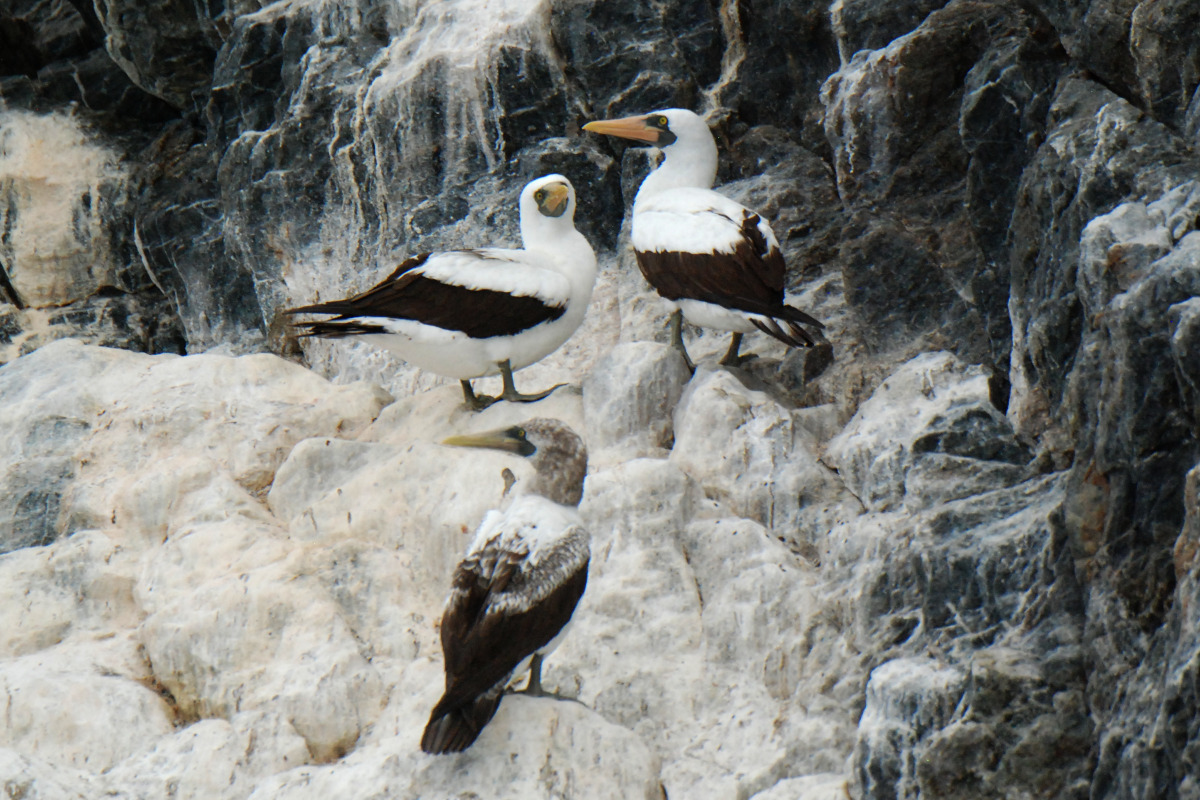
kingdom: Animalia
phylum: Chordata
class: Aves
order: Suliformes
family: Sulidae
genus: Sula
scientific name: Sula dactylatra
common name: Masked booby
